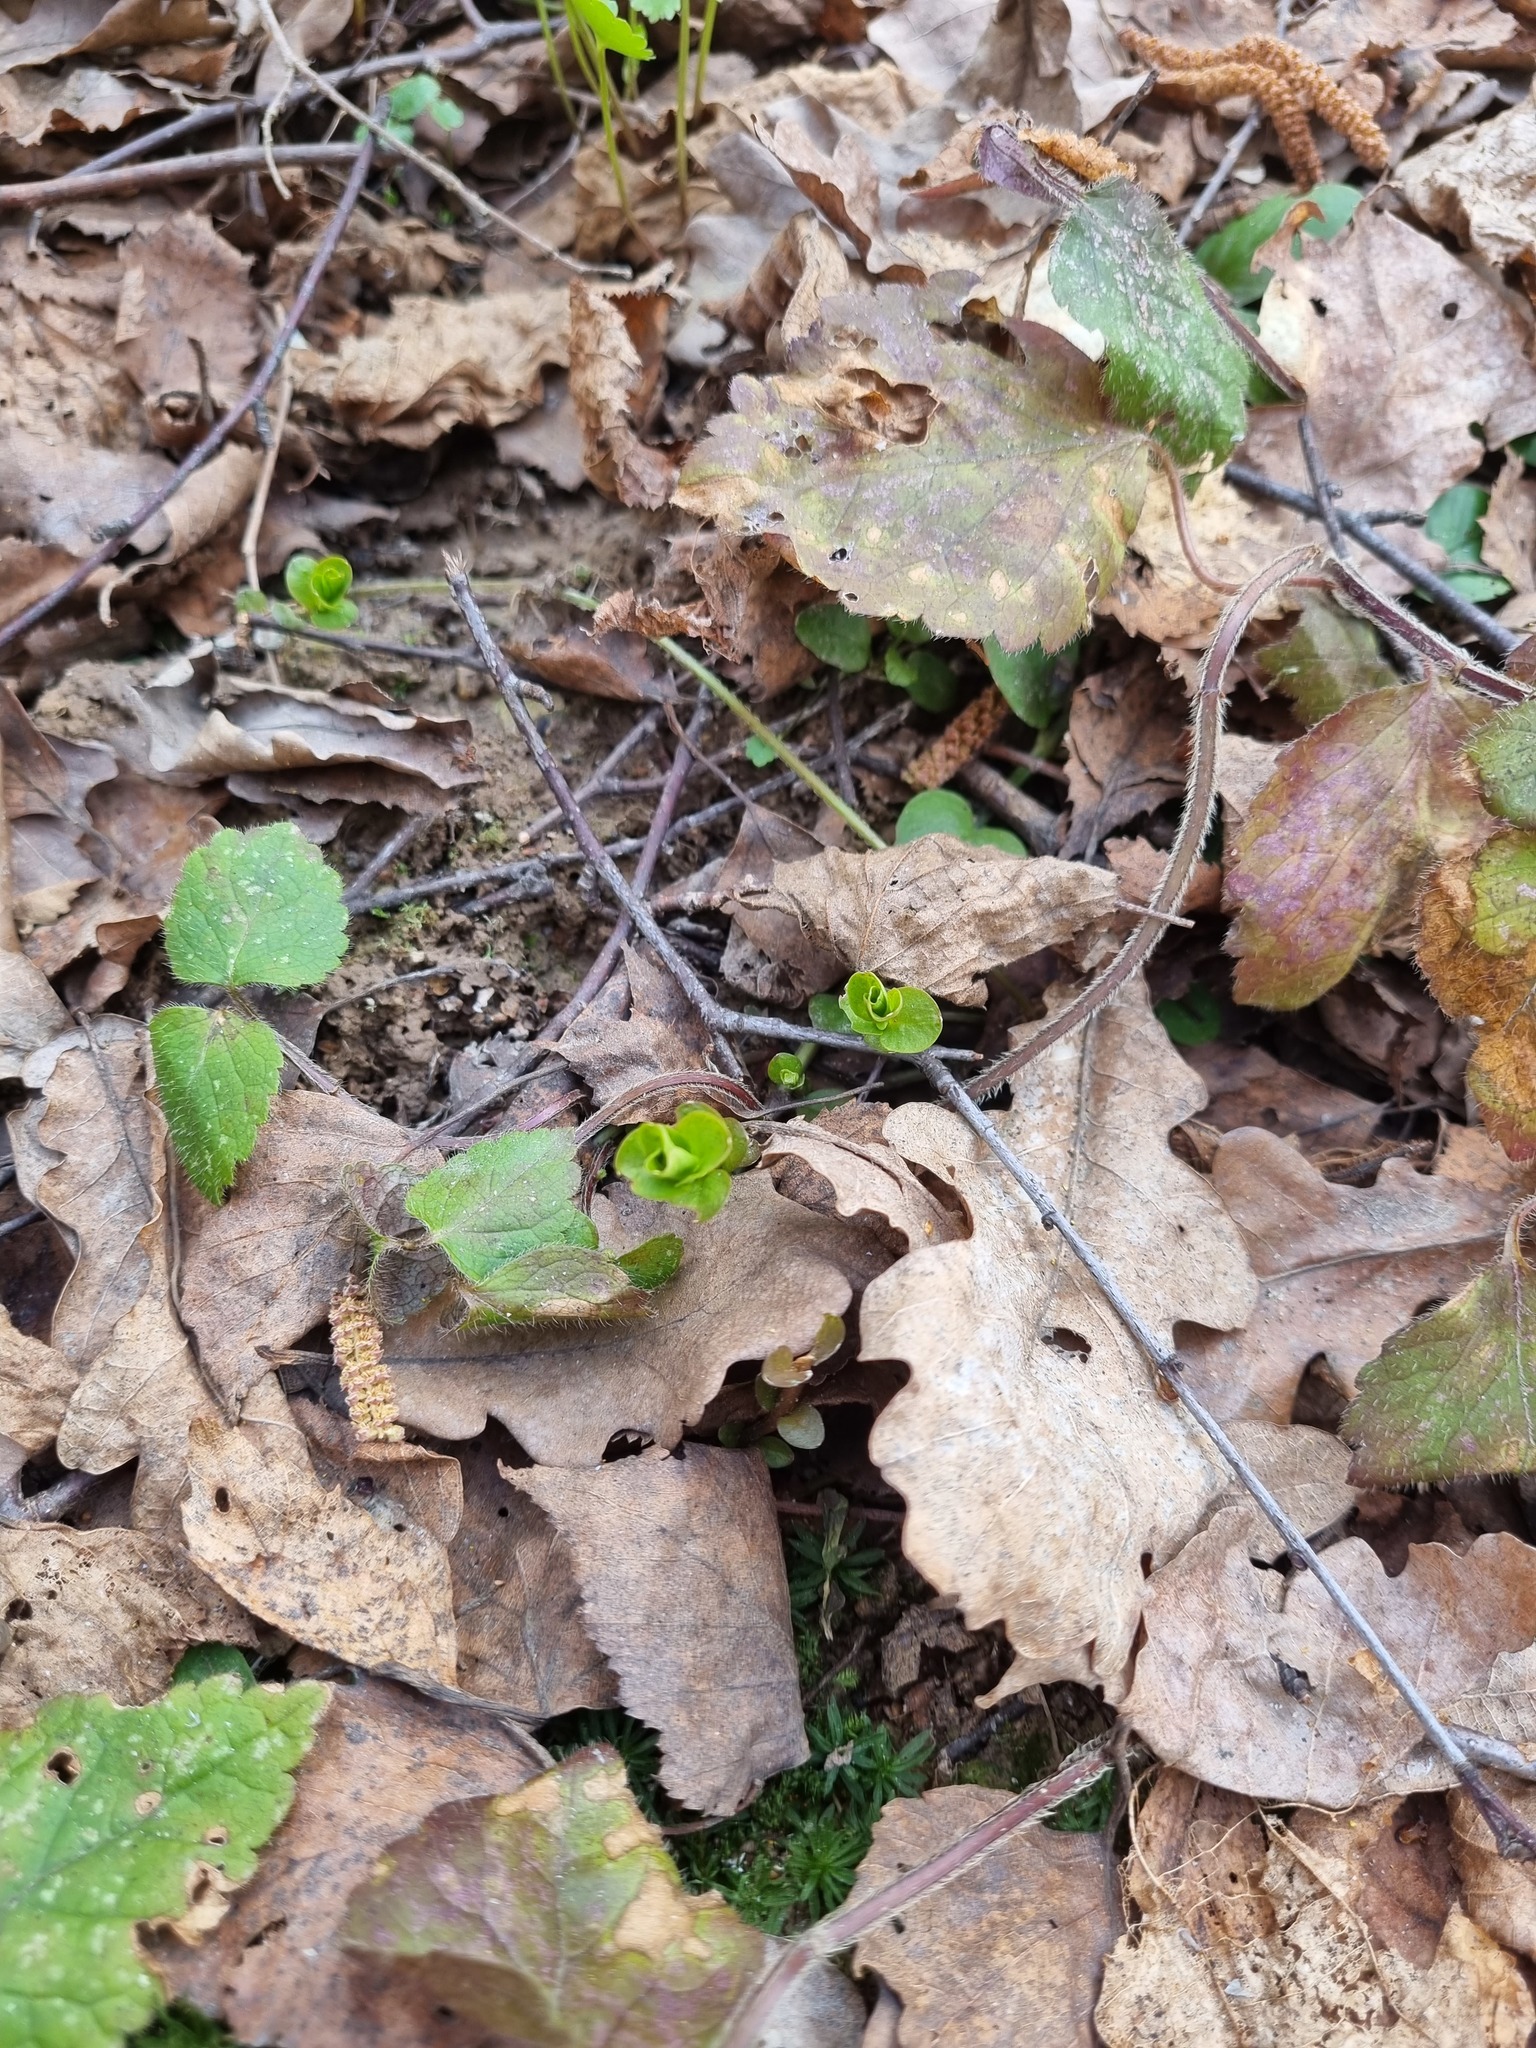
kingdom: Plantae
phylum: Tracheophyta
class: Magnoliopsida
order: Ericales
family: Primulaceae
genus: Lysimachia
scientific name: Lysimachia nummularia
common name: Moneywort
